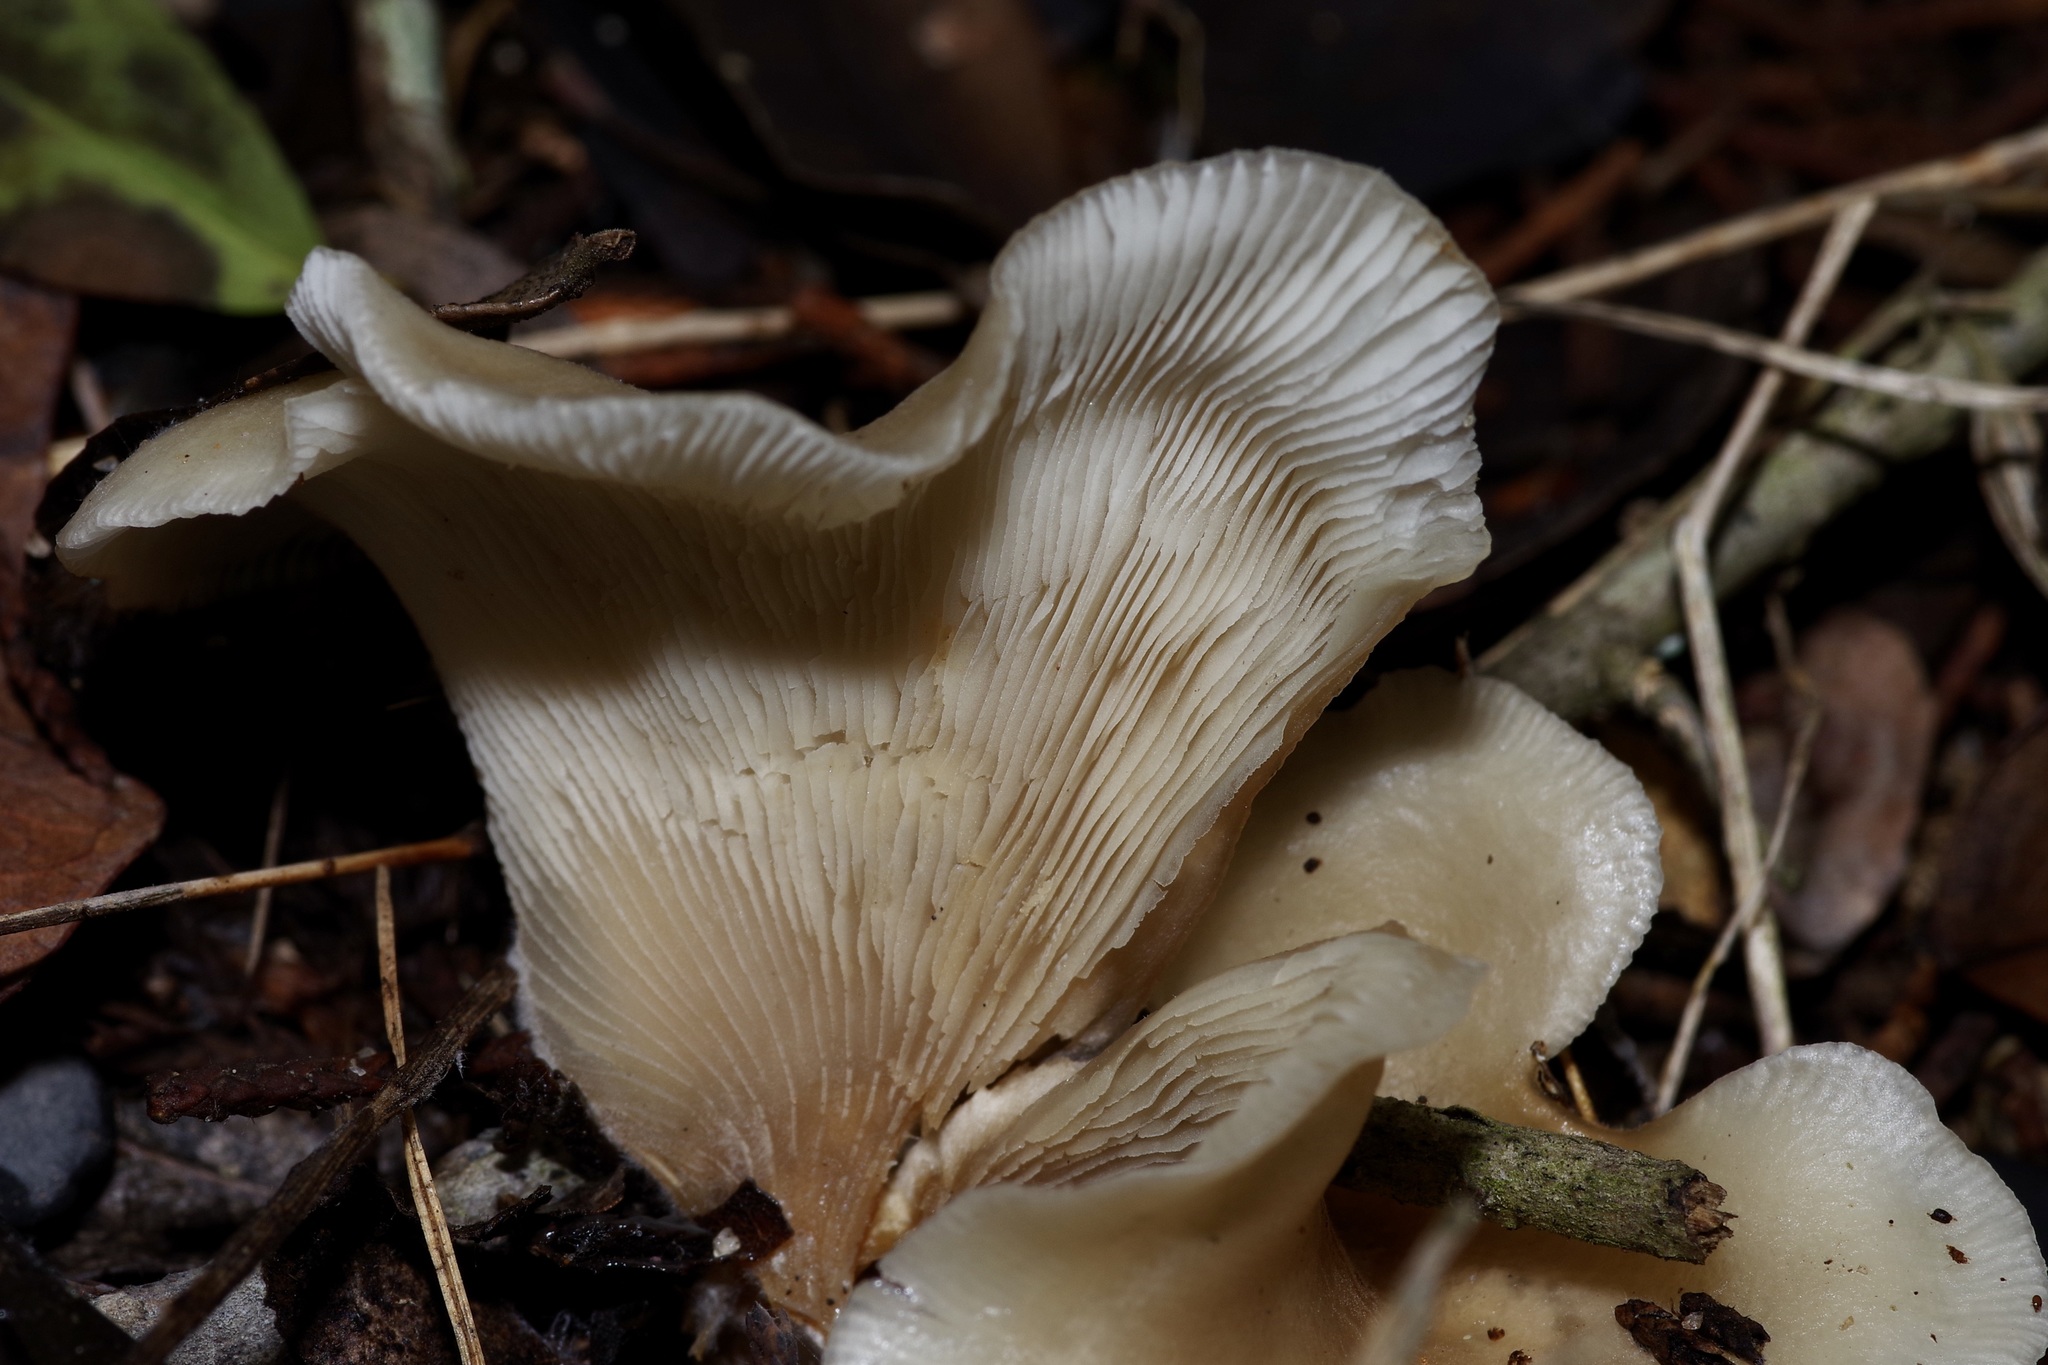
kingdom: Fungi
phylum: Basidiomycota
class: Agaricomycetes
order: Agaricales
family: Pleurotaceae
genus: Hohenbuehelia
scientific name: Hohenbuehelia petaloides
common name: Shoehorn oyster
